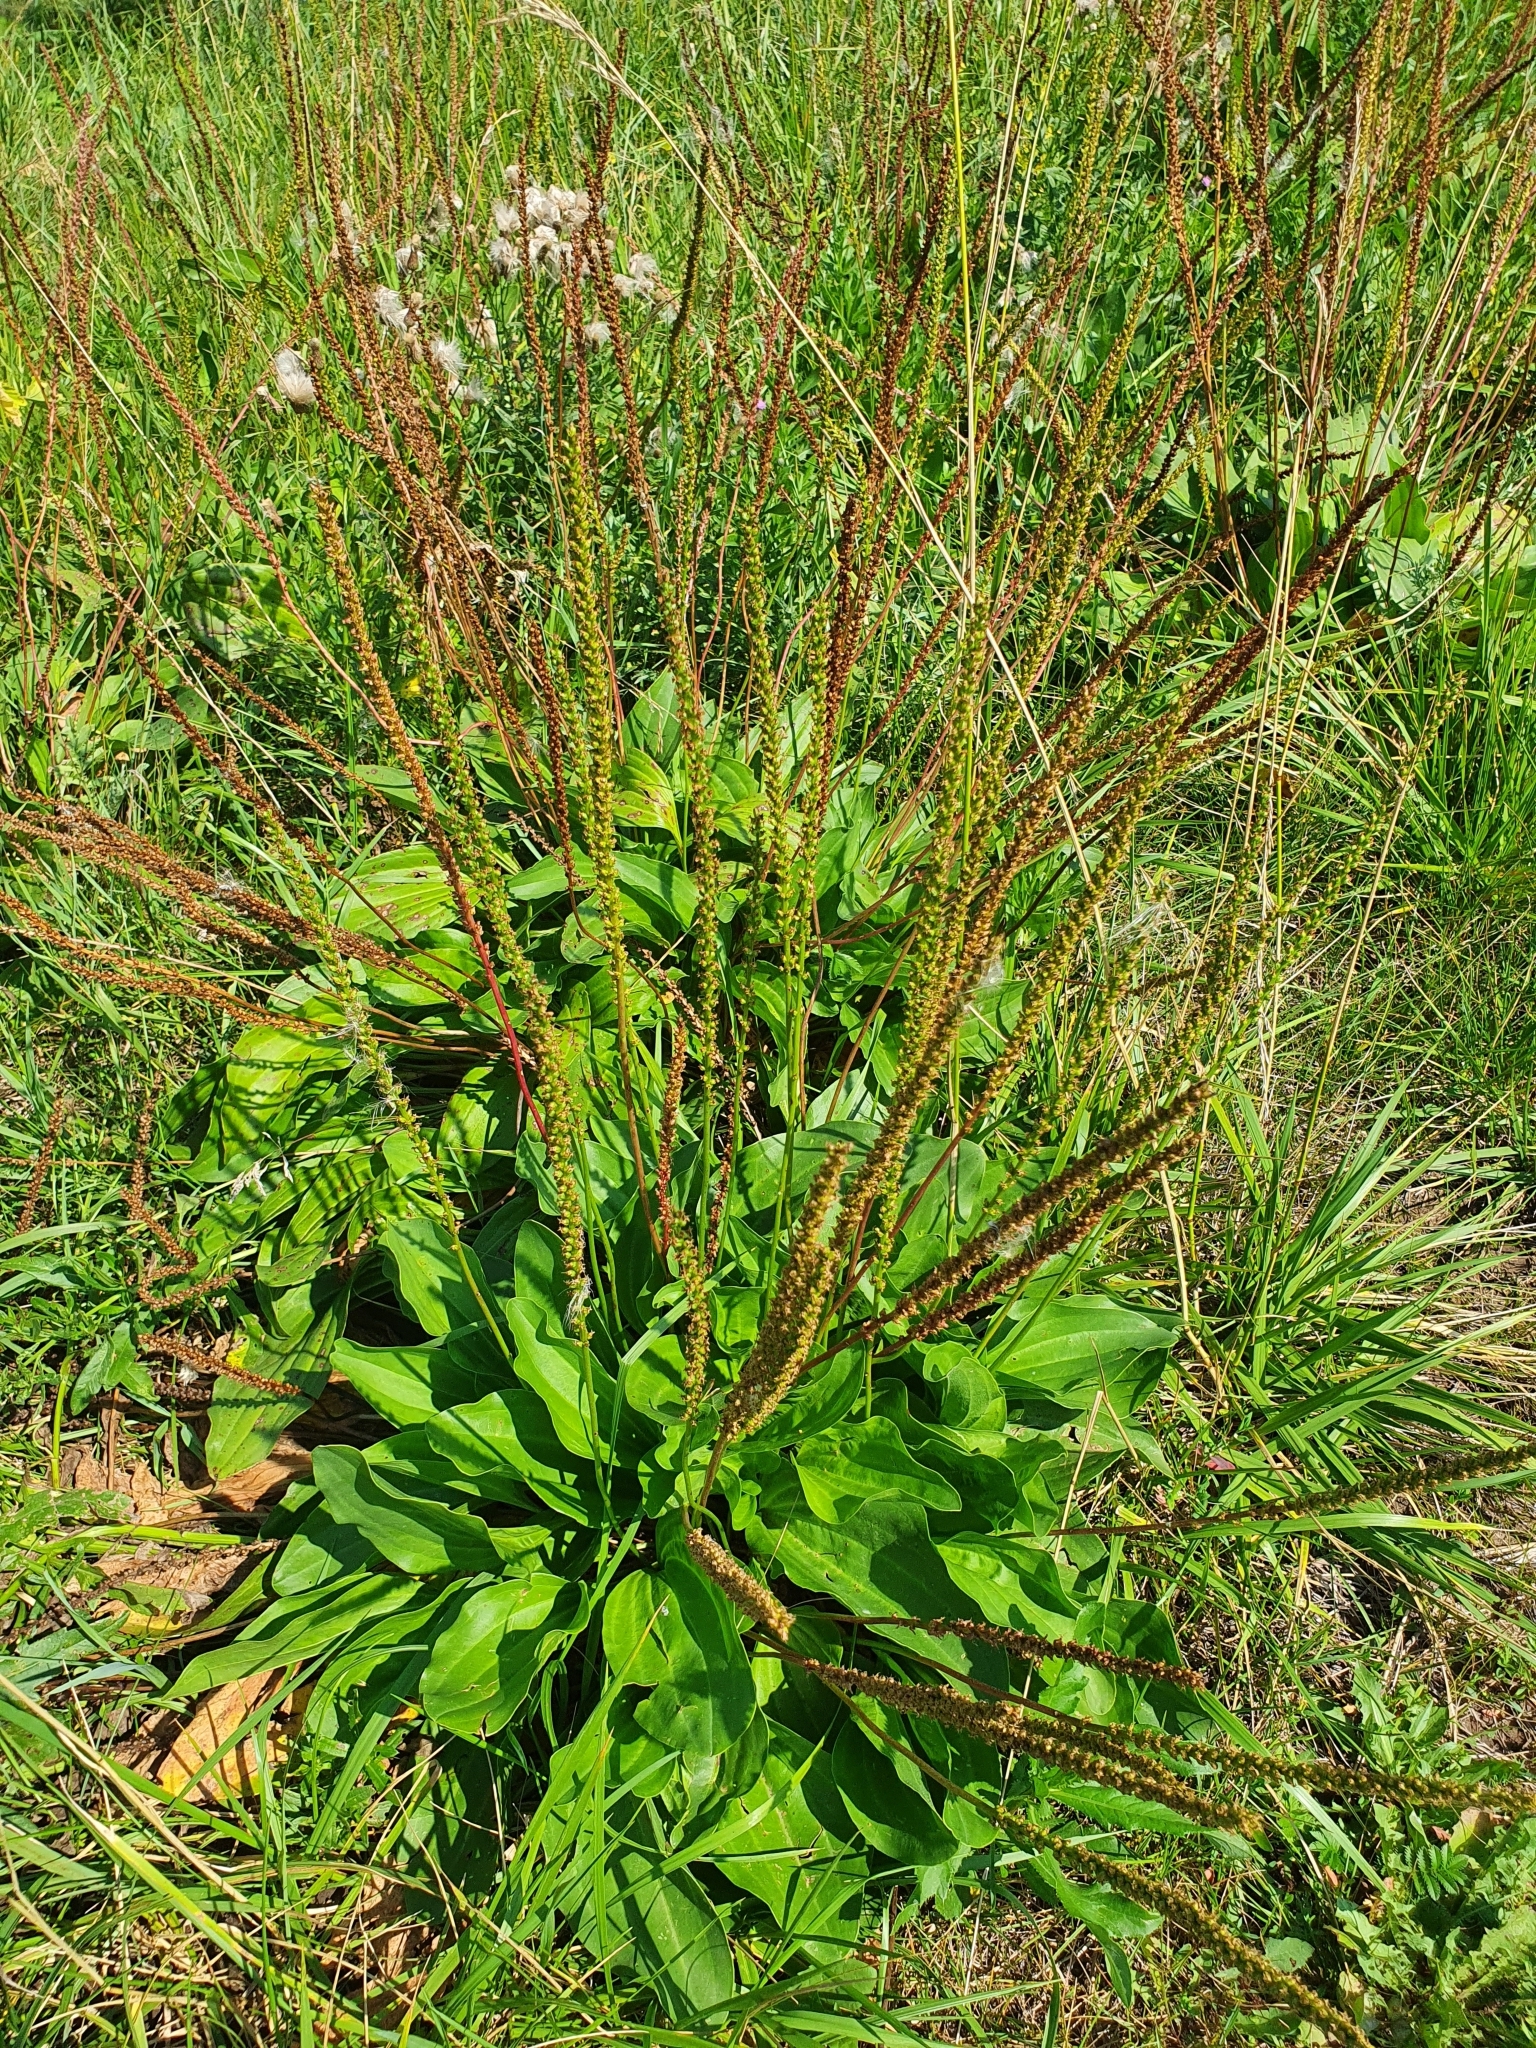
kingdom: Plantae
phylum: Tracheophyta
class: Magnoliopsida
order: Lamiales
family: Plantaginaceae
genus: Plantago
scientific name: Plantago cornuti
